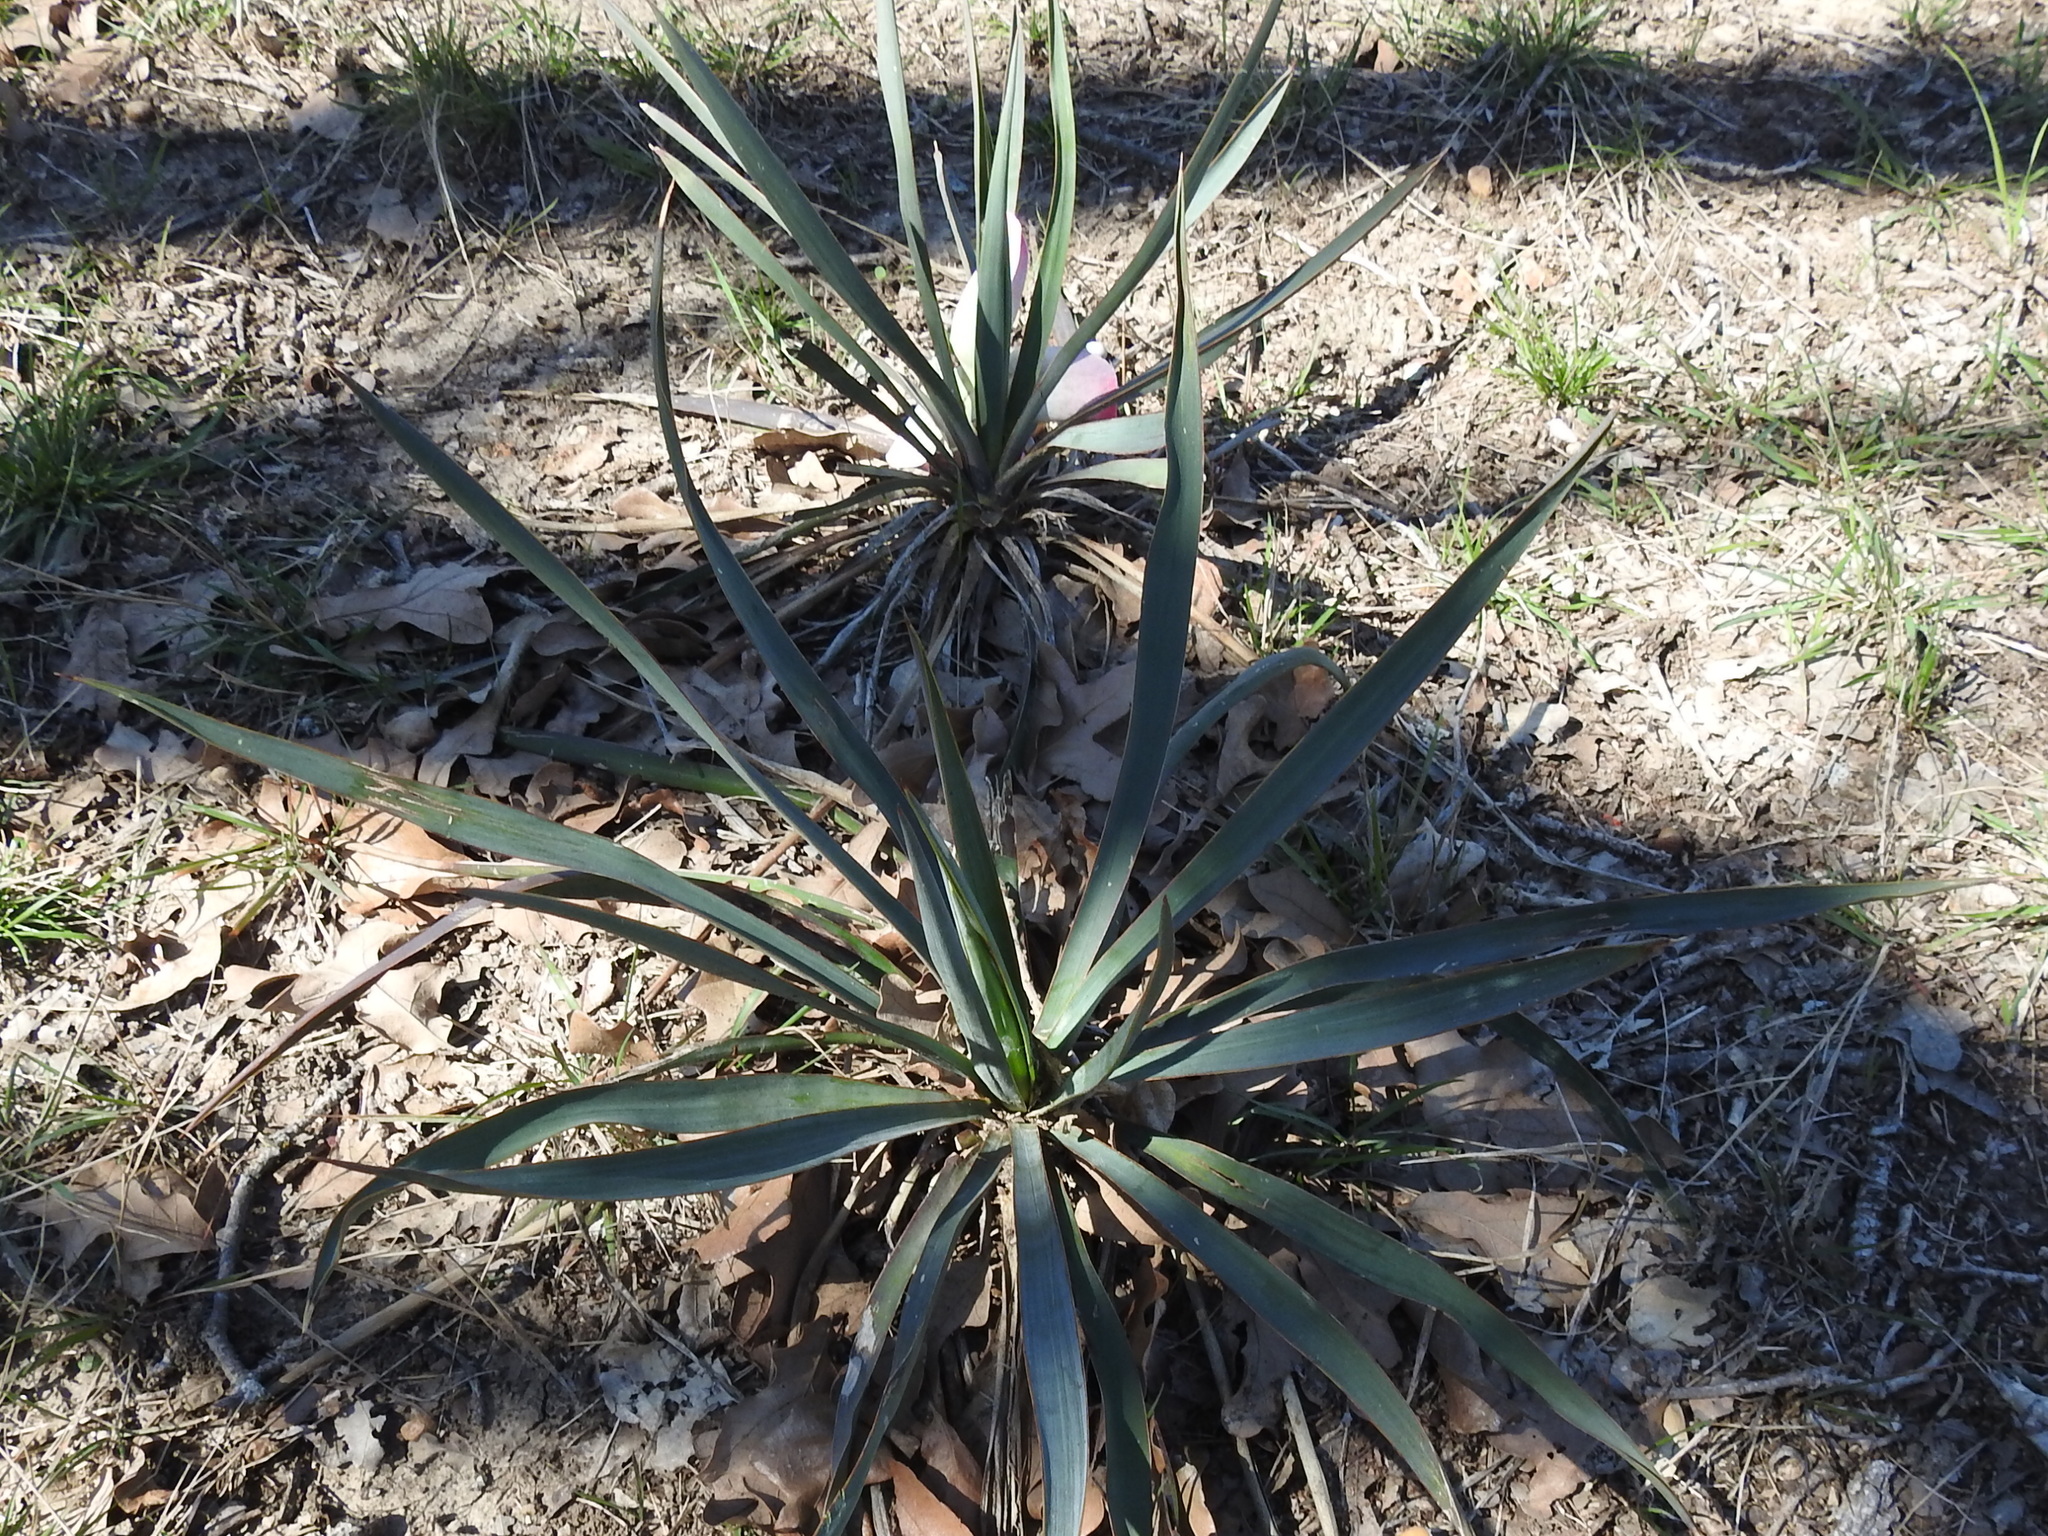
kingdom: Plantae
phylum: Tracheophyta
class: Liliopsida
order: Asparagales
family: Asparagaceae
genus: Yucca
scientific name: Yucca pallida
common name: Pale leaf yucca
